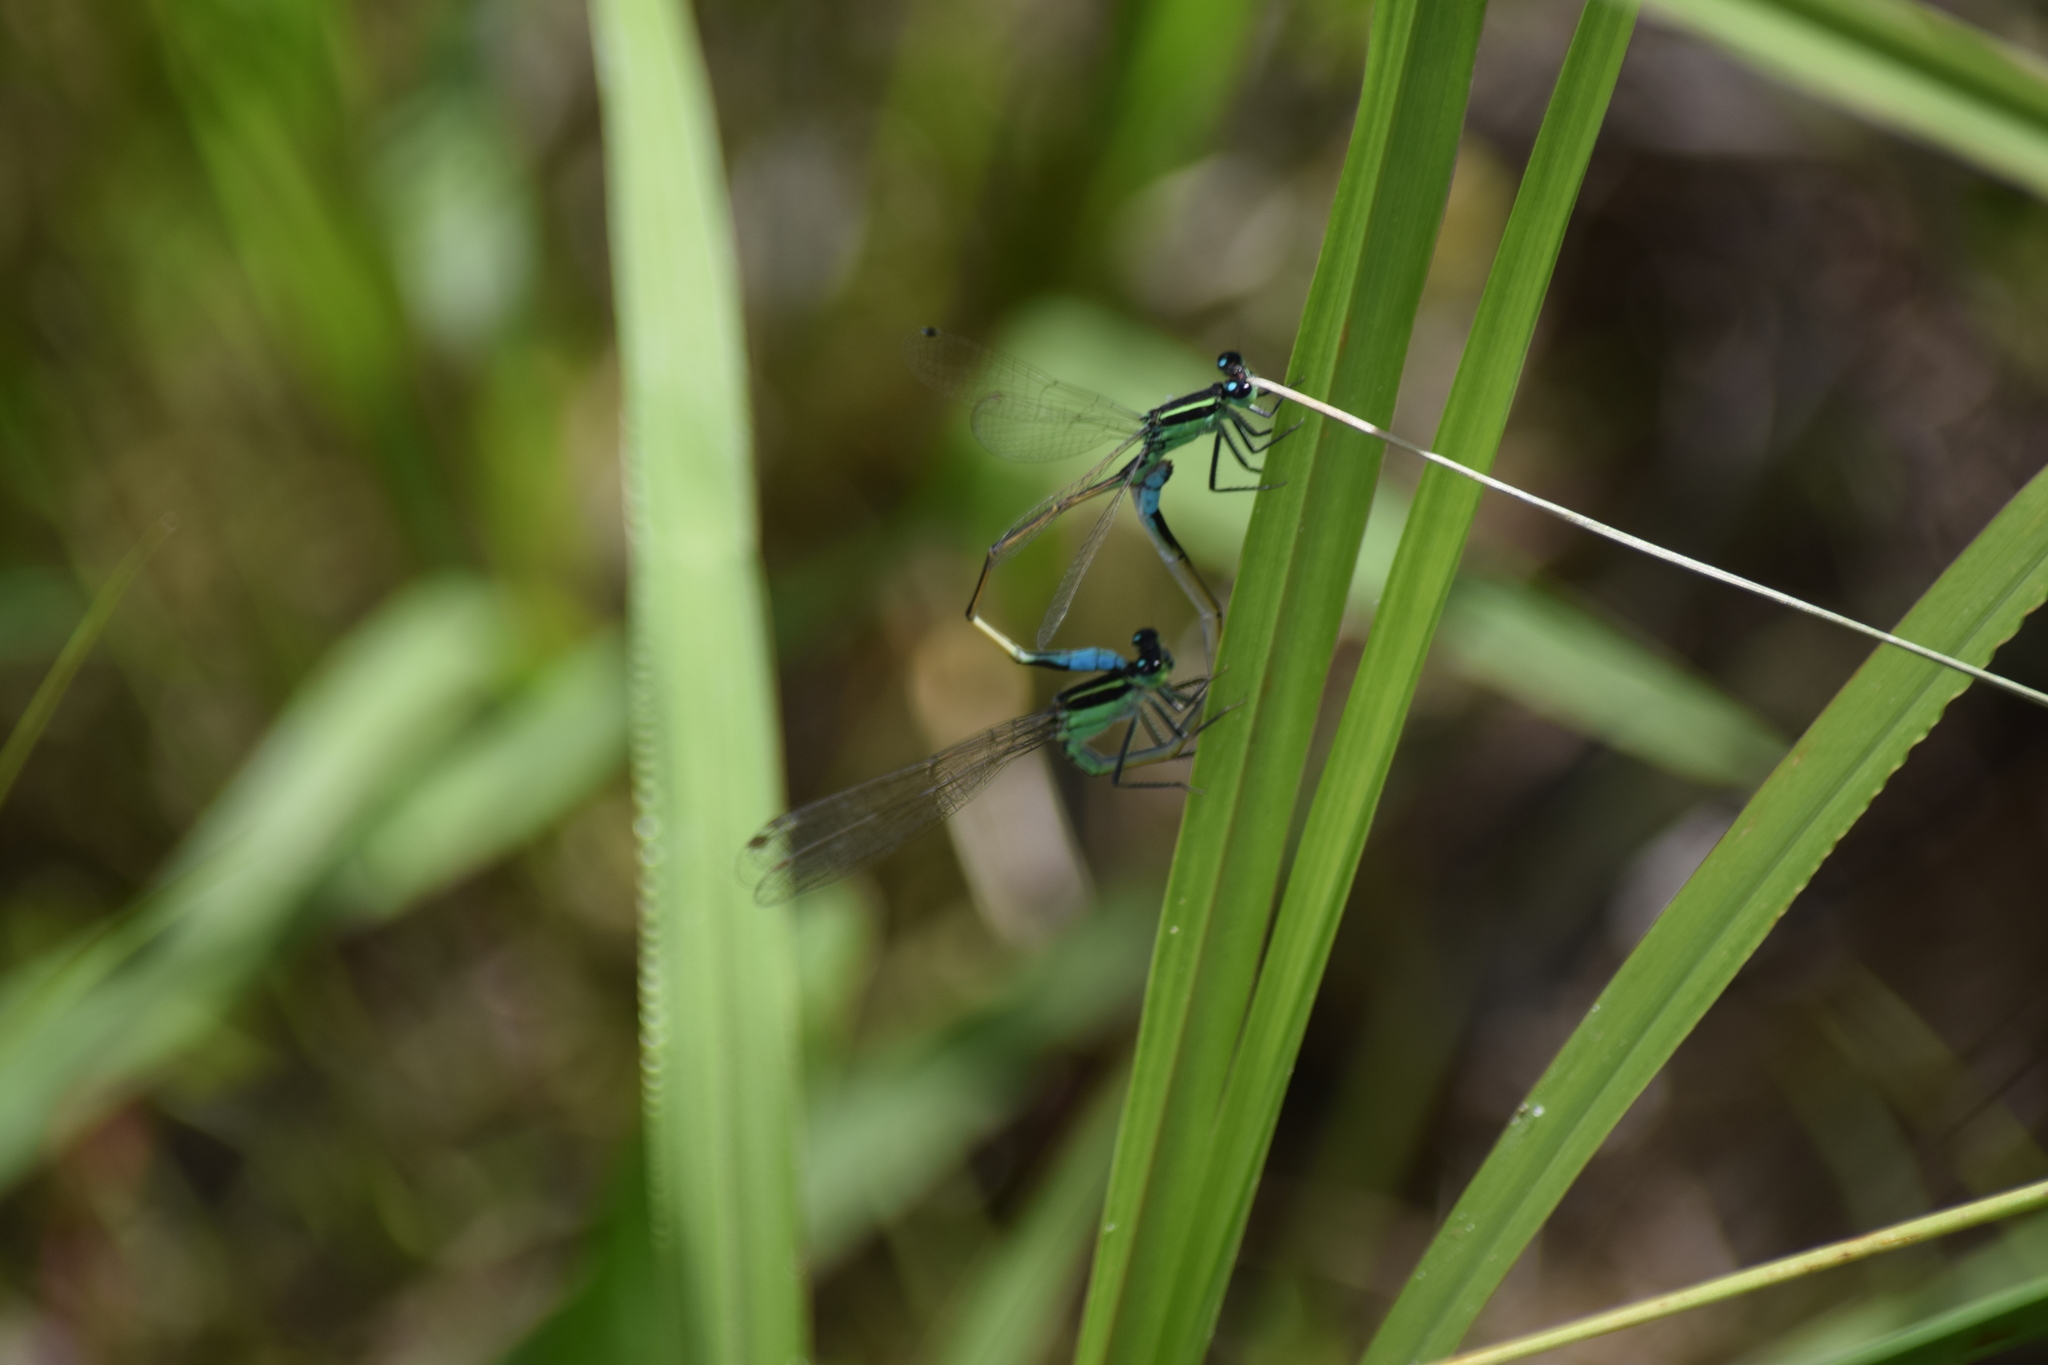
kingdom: Animalia
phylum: Arthropoda
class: Insecta
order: Odonata
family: Coenagrionidae
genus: Ischnura
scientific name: Ischnura ramburii
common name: Rambur's forktail
